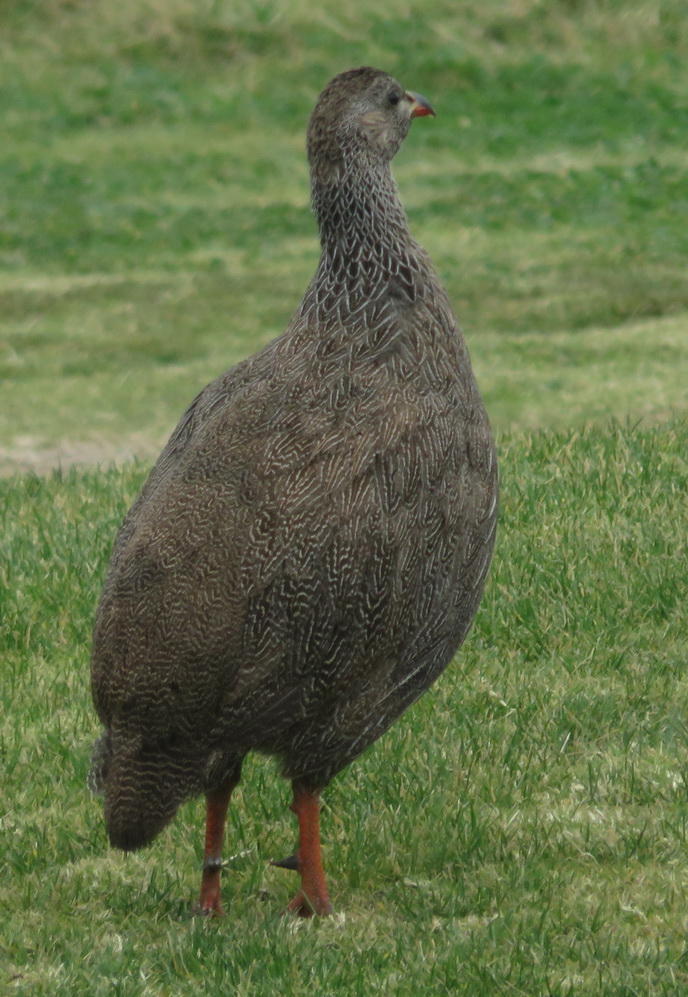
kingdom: Animalia
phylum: Chordata
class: Aves
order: Galliformes
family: Phasianidae
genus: Pternistis
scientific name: Pternistis capensis
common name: Cape spurfowl
